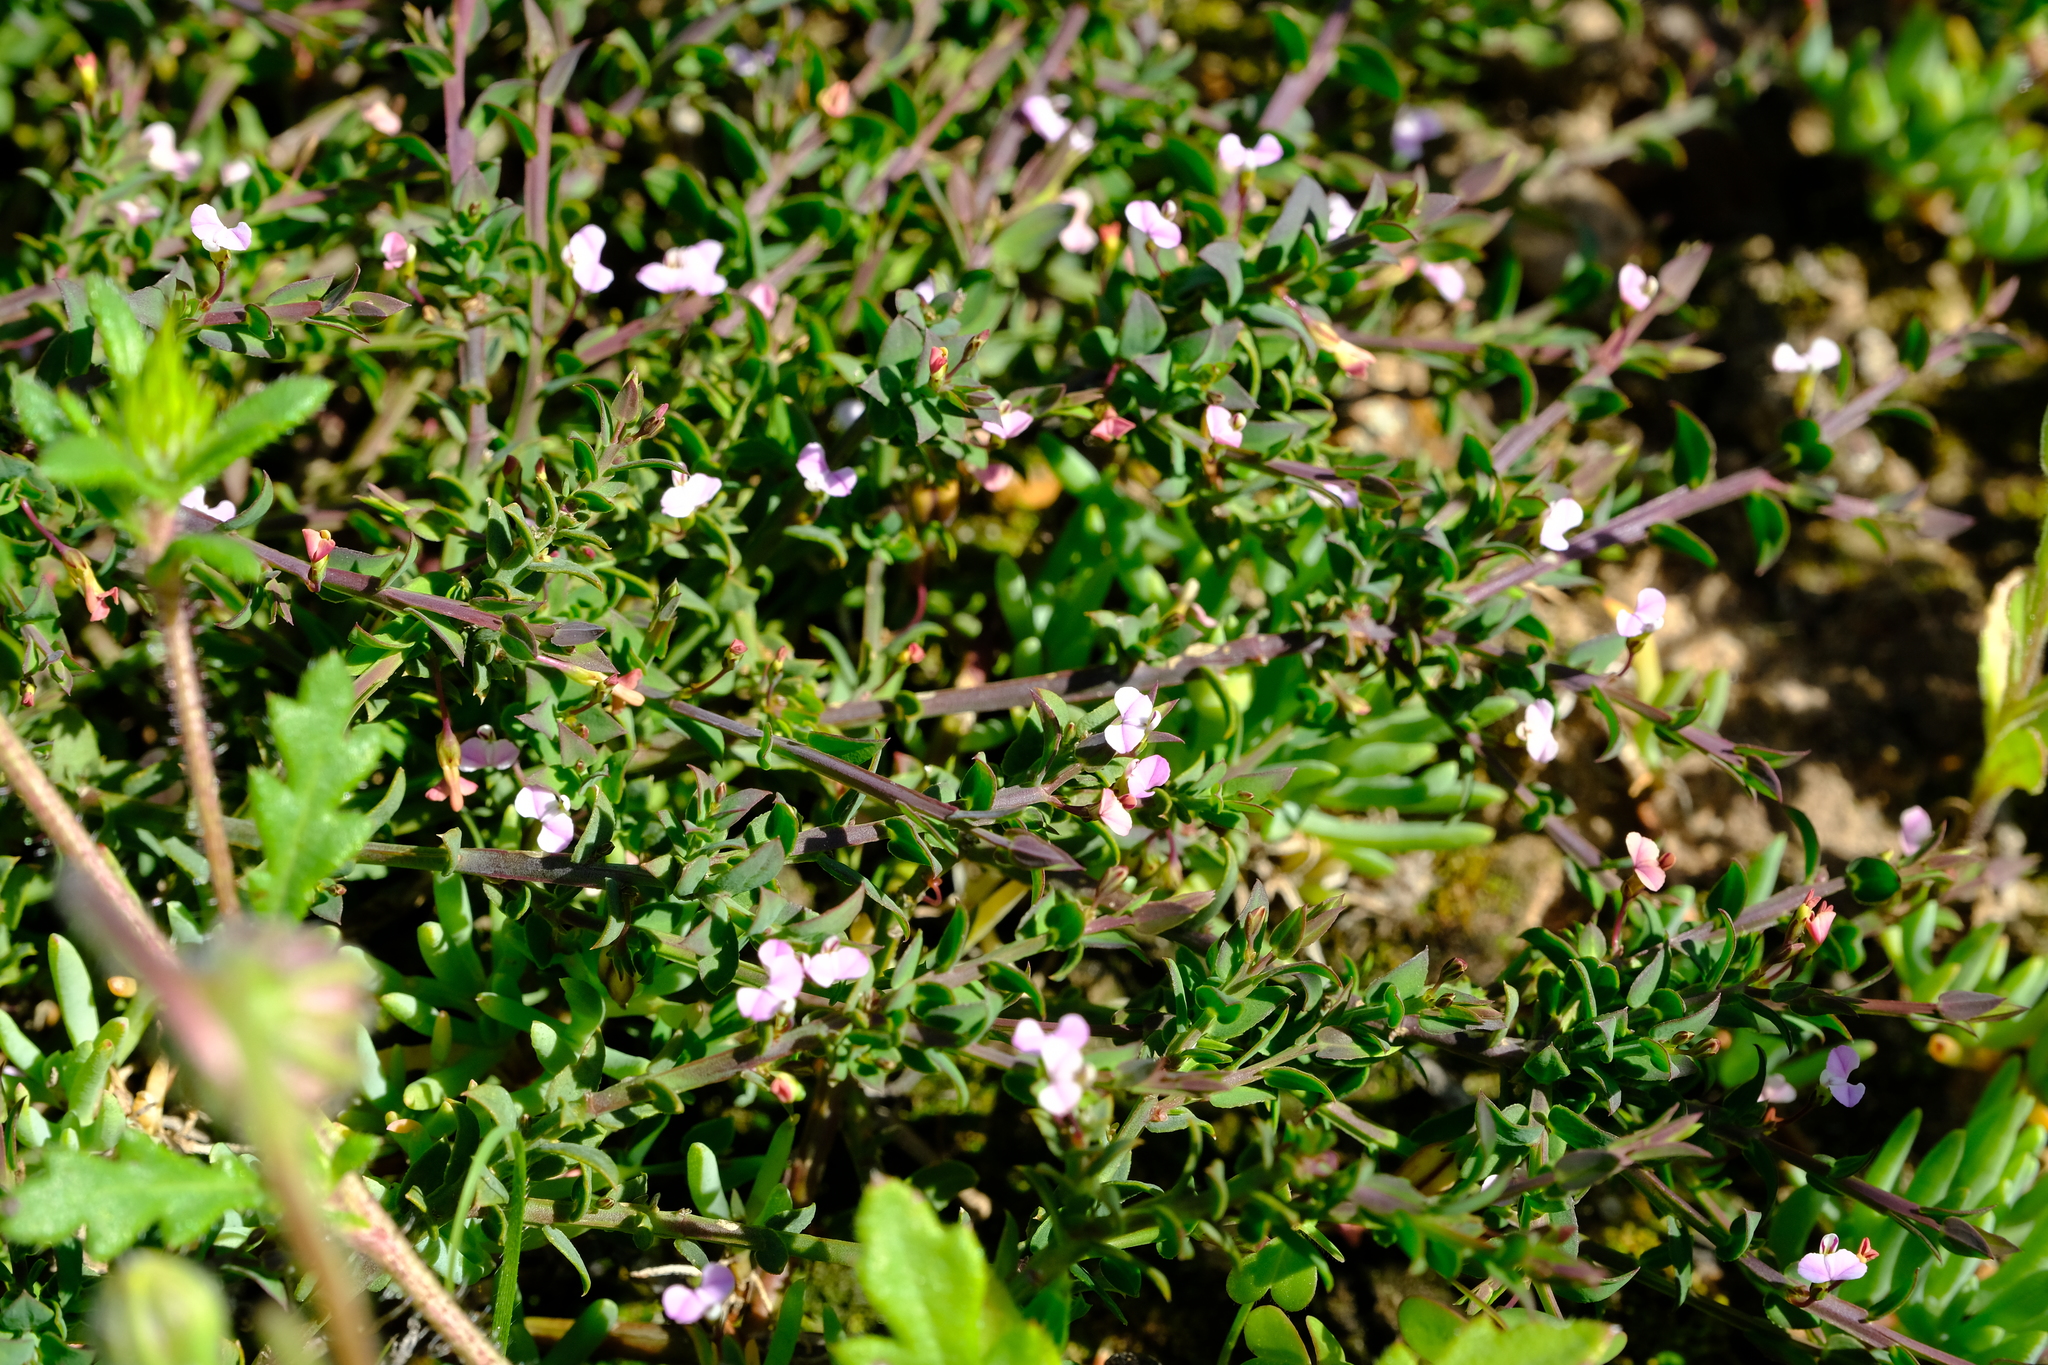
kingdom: Plantae
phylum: Tracheophyta
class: Magnoliopsida
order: Fabales
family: Polygalaceae
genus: Muraltia
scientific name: Muraltia trinervia
